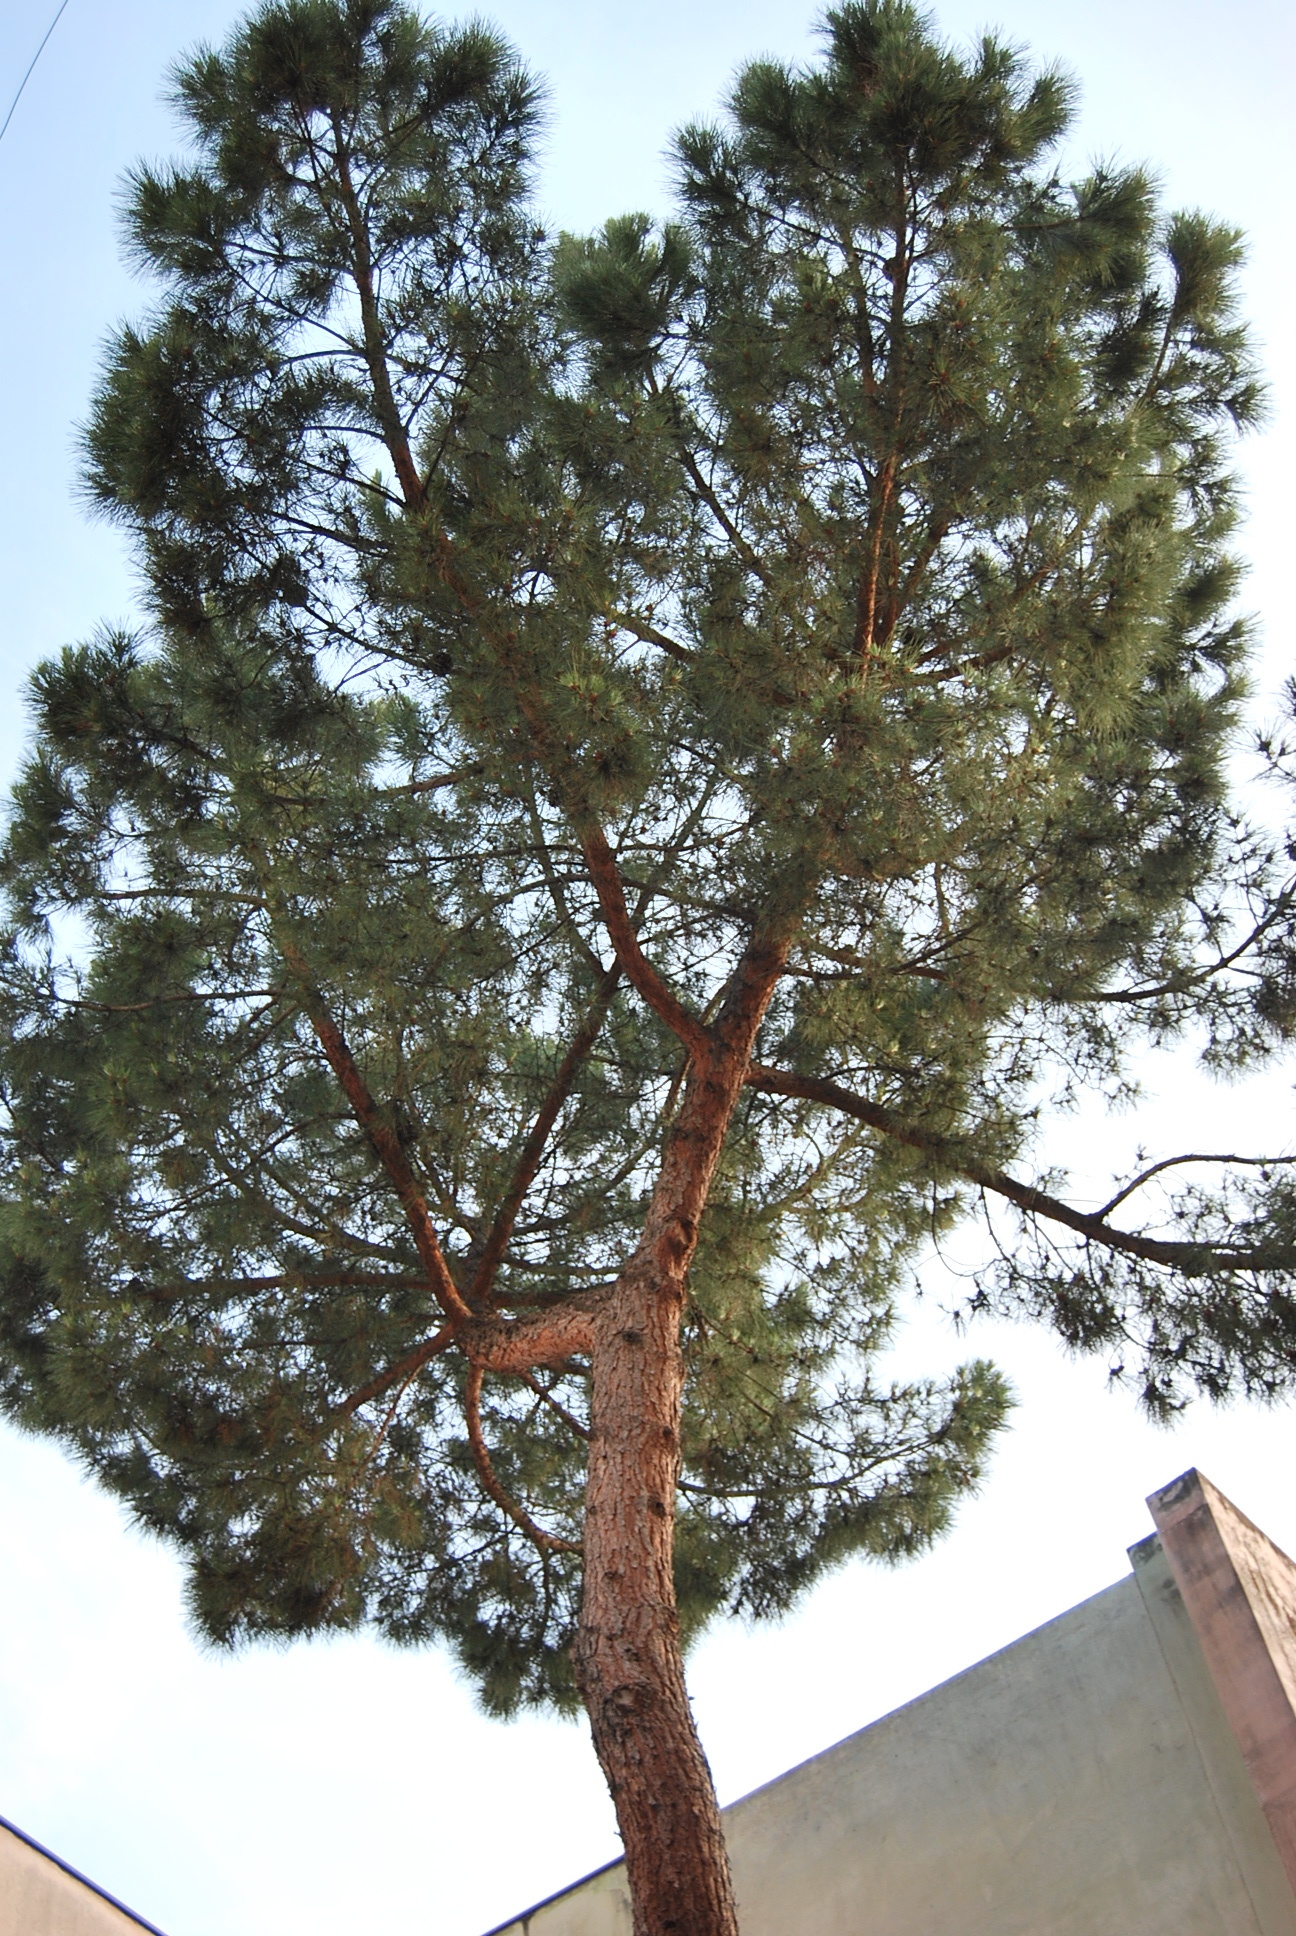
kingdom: Plantae
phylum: Tracheophyta
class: Pinopsida
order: Pinales
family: Pinaceae
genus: Pinus
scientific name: Pinus pinea
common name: Italian stone pine
